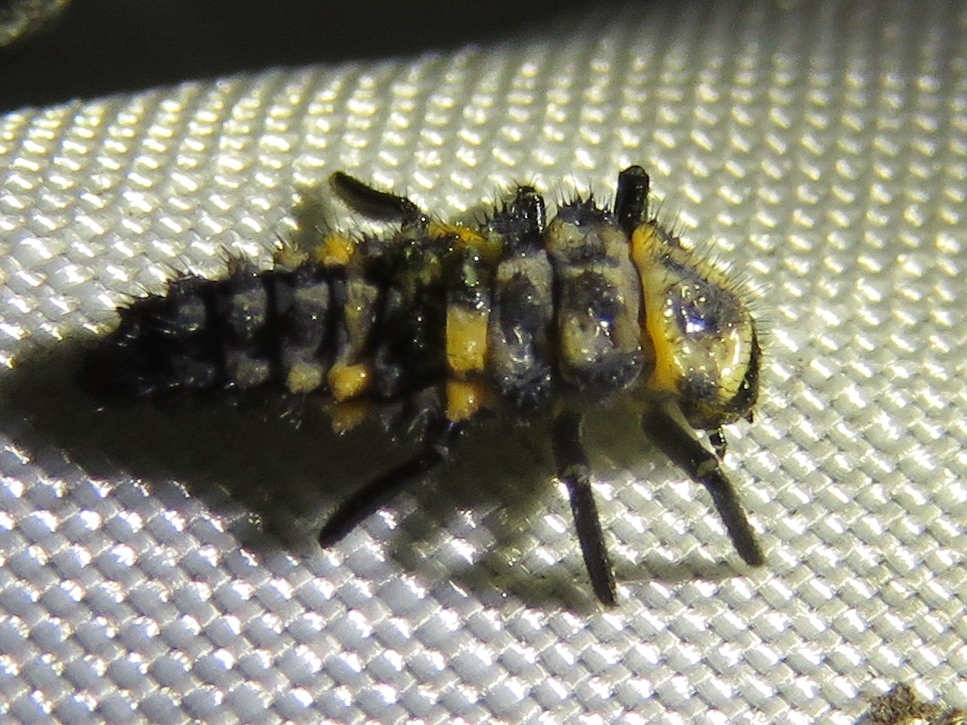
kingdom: Animalia
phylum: Arthropoda
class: Insecta
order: Coleoptera
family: Coccinellidae
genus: Coccinella
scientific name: Coccinella septempunctata
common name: Sevenspotted lady beetle
